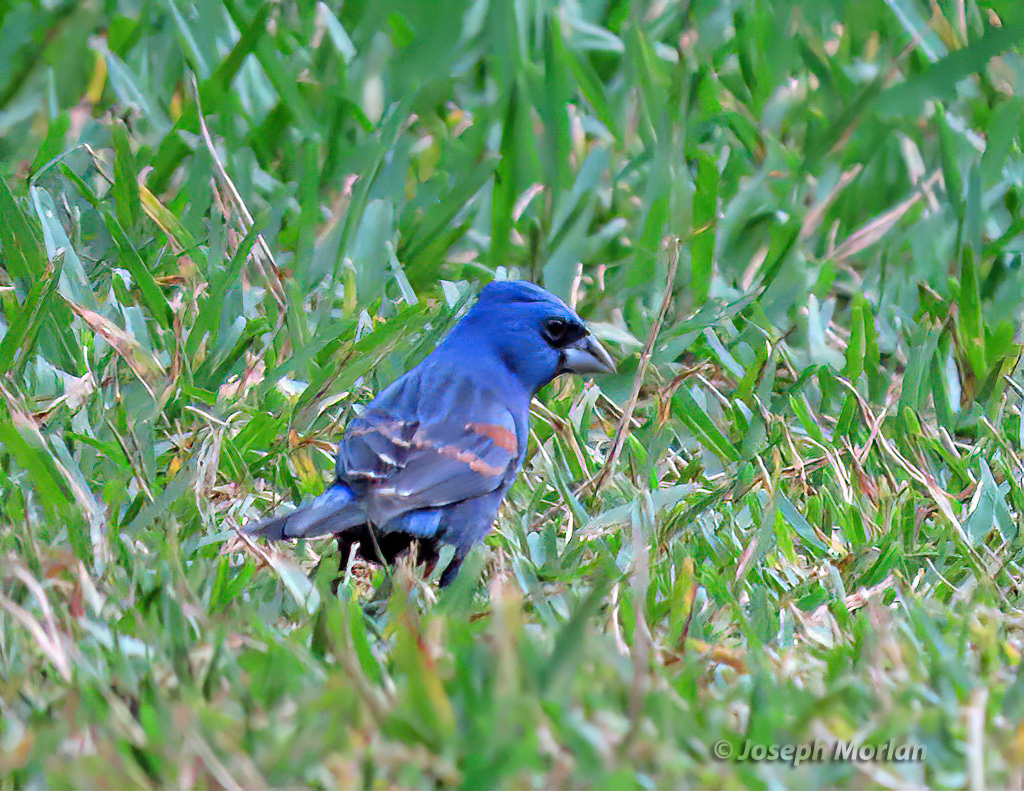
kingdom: Animalia
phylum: Chordata
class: Aves
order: Passeriformes
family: Cardinalidae
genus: Passerina
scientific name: Passerina caerulea
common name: Blue grosbeak
